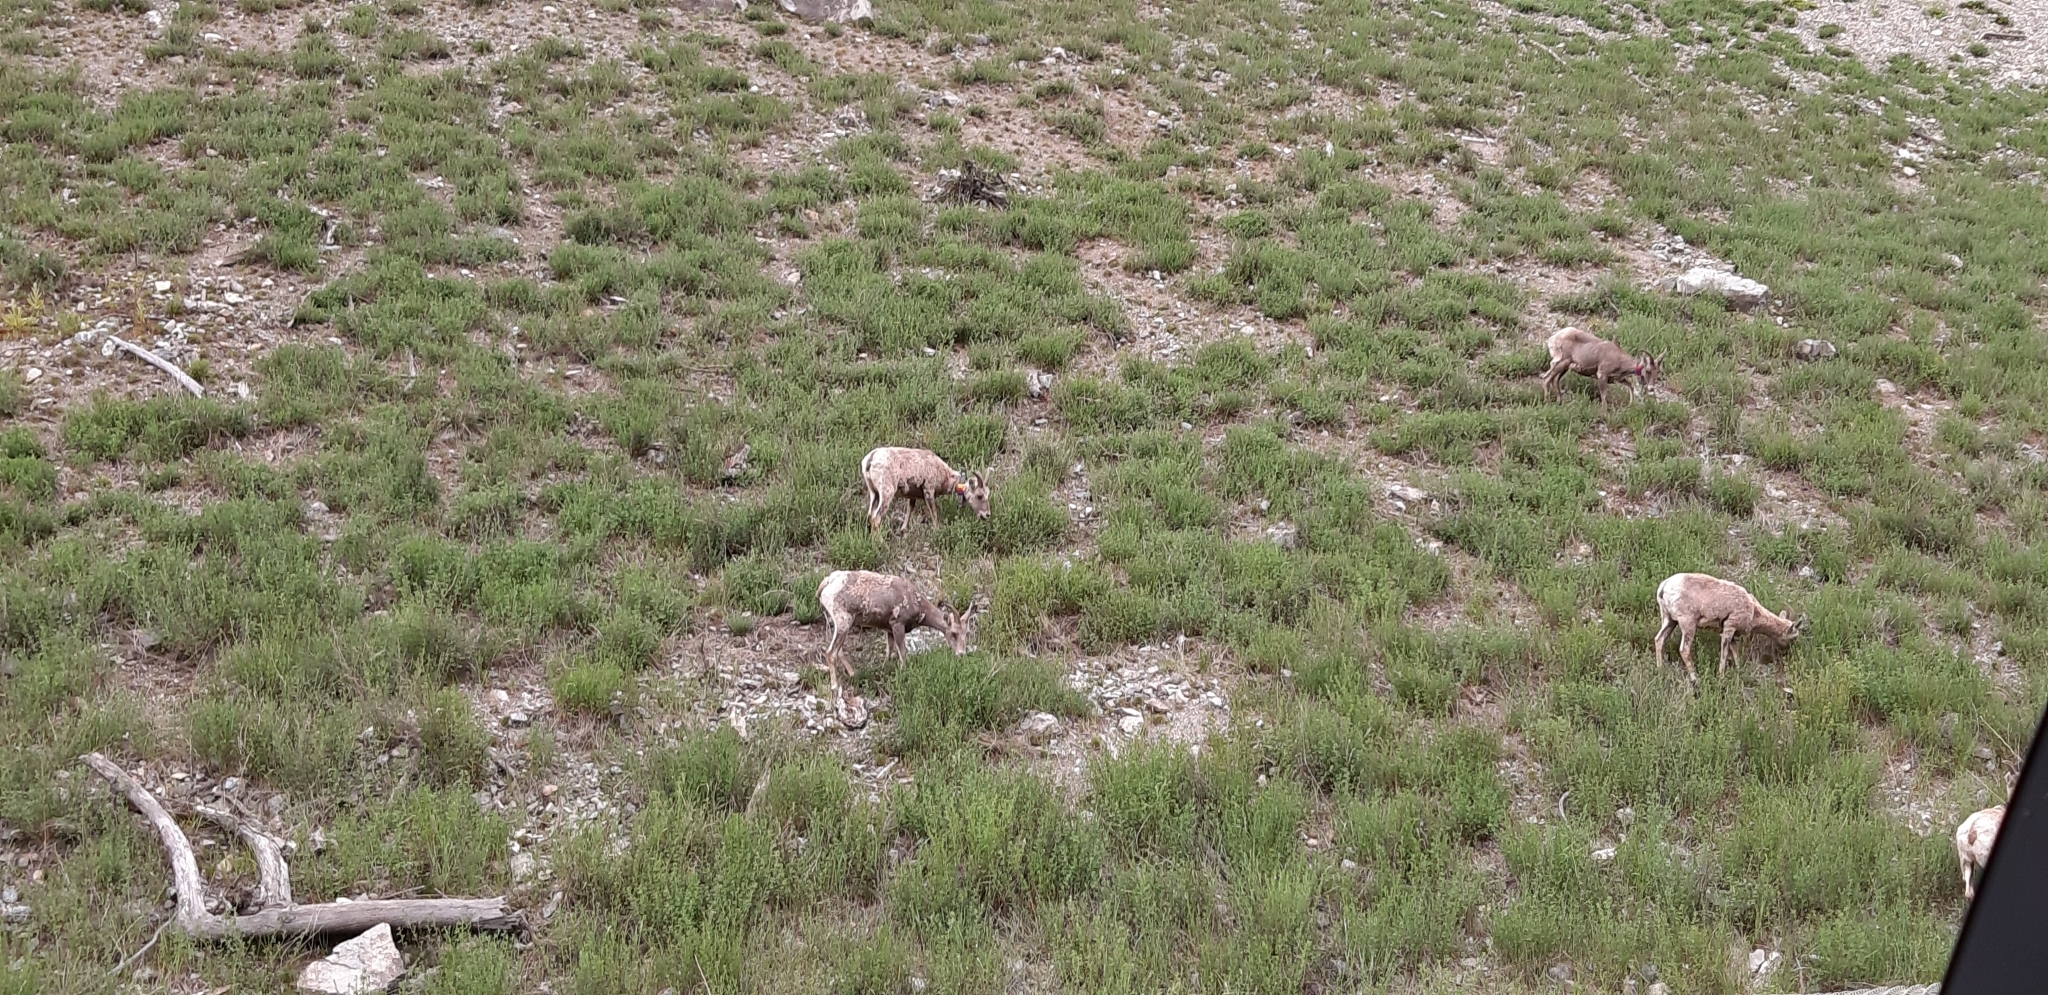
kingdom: Animalia
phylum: Chordata
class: Mammalia
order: Artiodactyla
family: Bovidae
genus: Ovis
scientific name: Ovis canadensis
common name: Bighorn sheep
